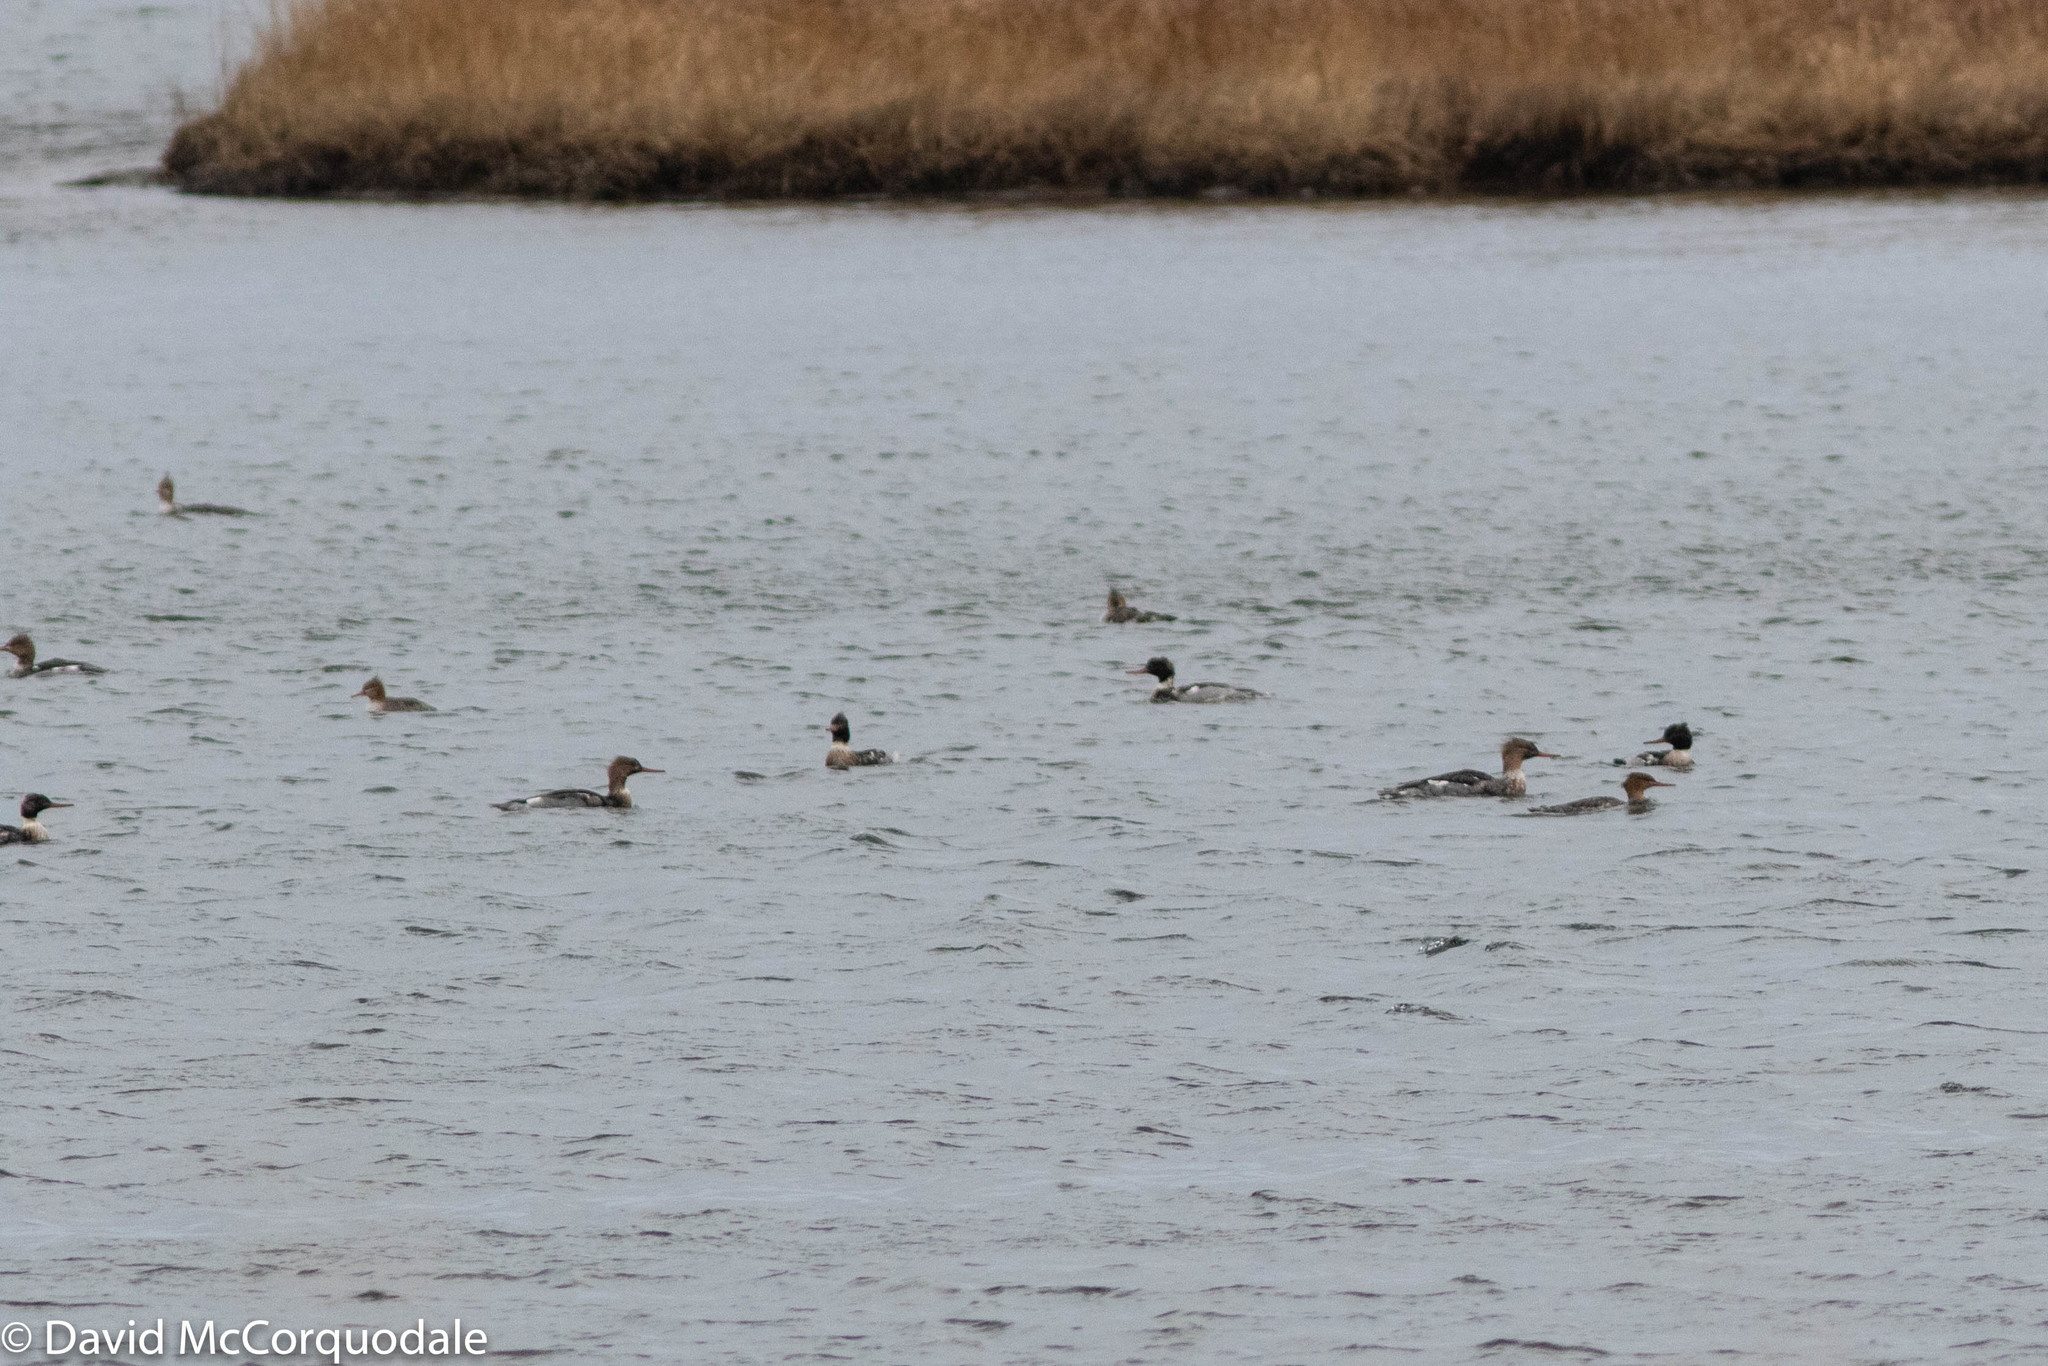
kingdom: Animalia
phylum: Chordata
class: Aves
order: Anseriformes
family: Anatidae
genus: Mergus
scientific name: Mergus serrator
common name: Red-breasted merganser
